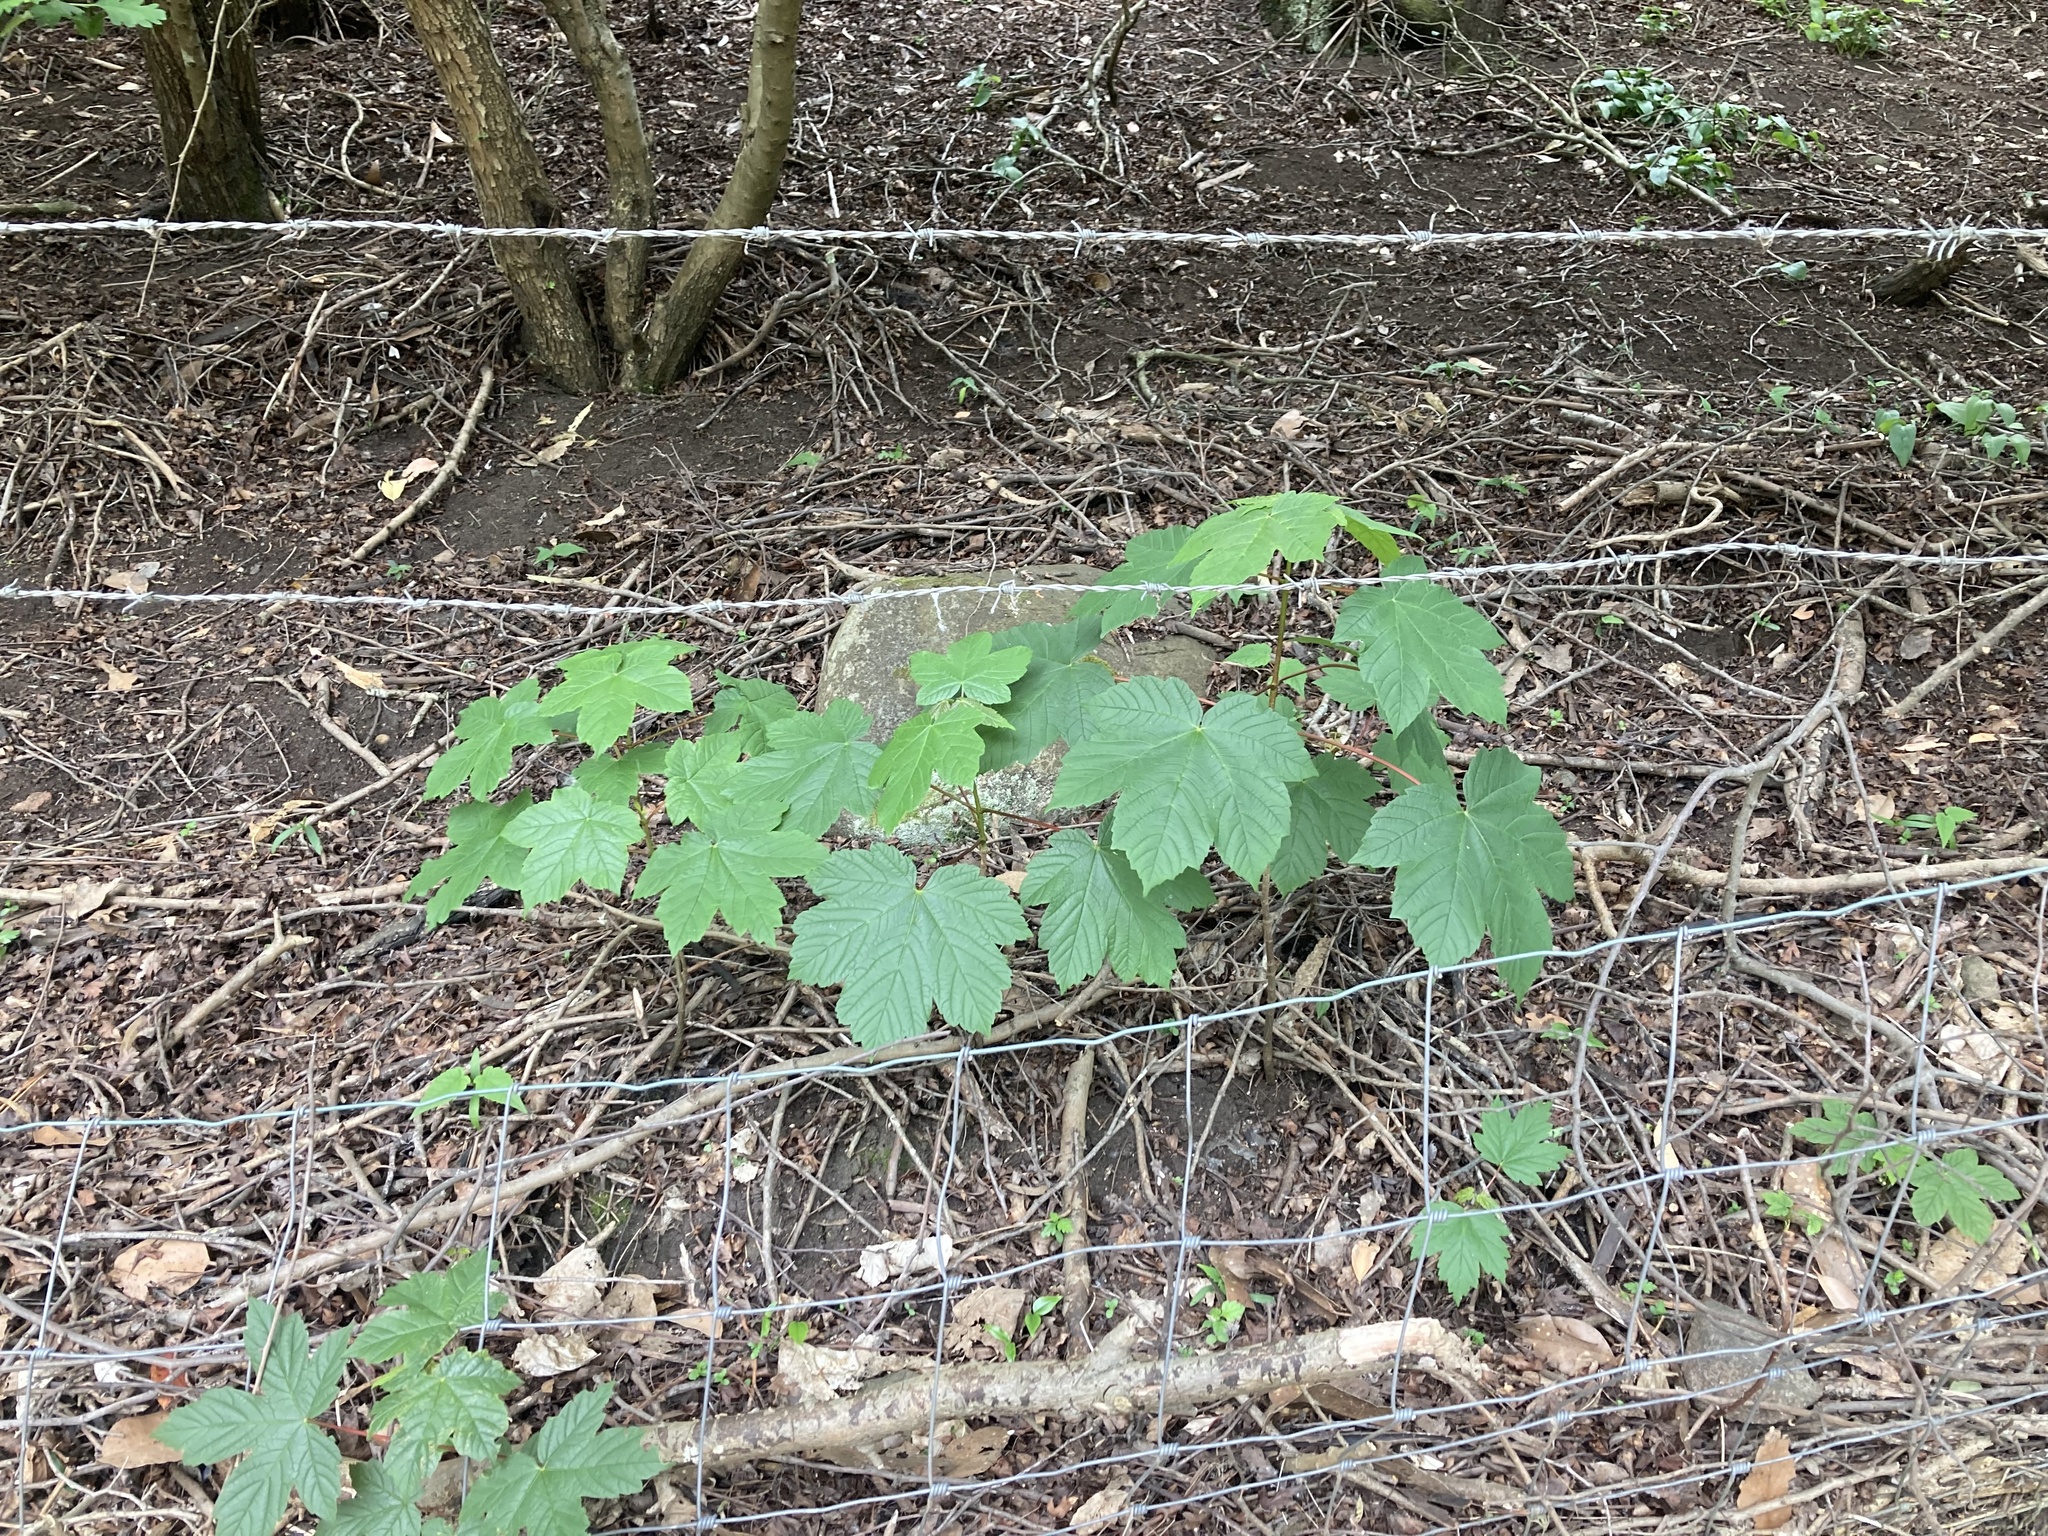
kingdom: Plantae
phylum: Tracheophyta
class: Magnoliopsida
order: Sapindales
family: Sapindaceae
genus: Acer
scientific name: Acer pseudoplatanus
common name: Sycamore
